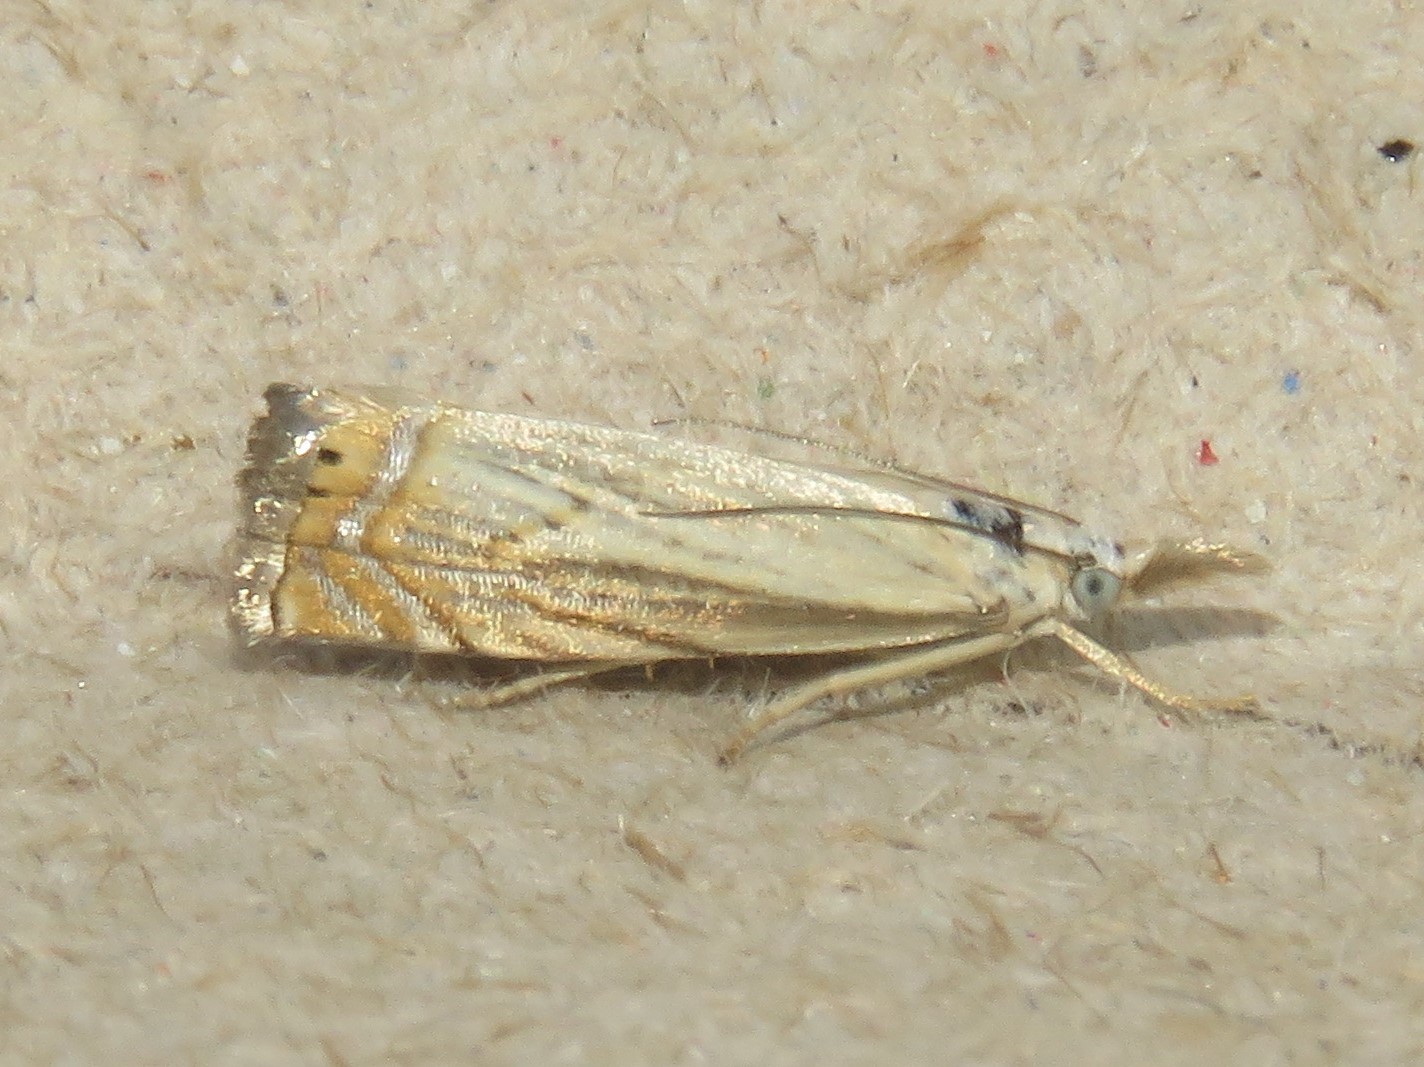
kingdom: Animalia
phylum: Arthropoda
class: Insecta
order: Lepidoptera
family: Crambidae
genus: Chrysoteuchia
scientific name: Chrysoteuchia topiarius
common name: Topiary grass-veneer
